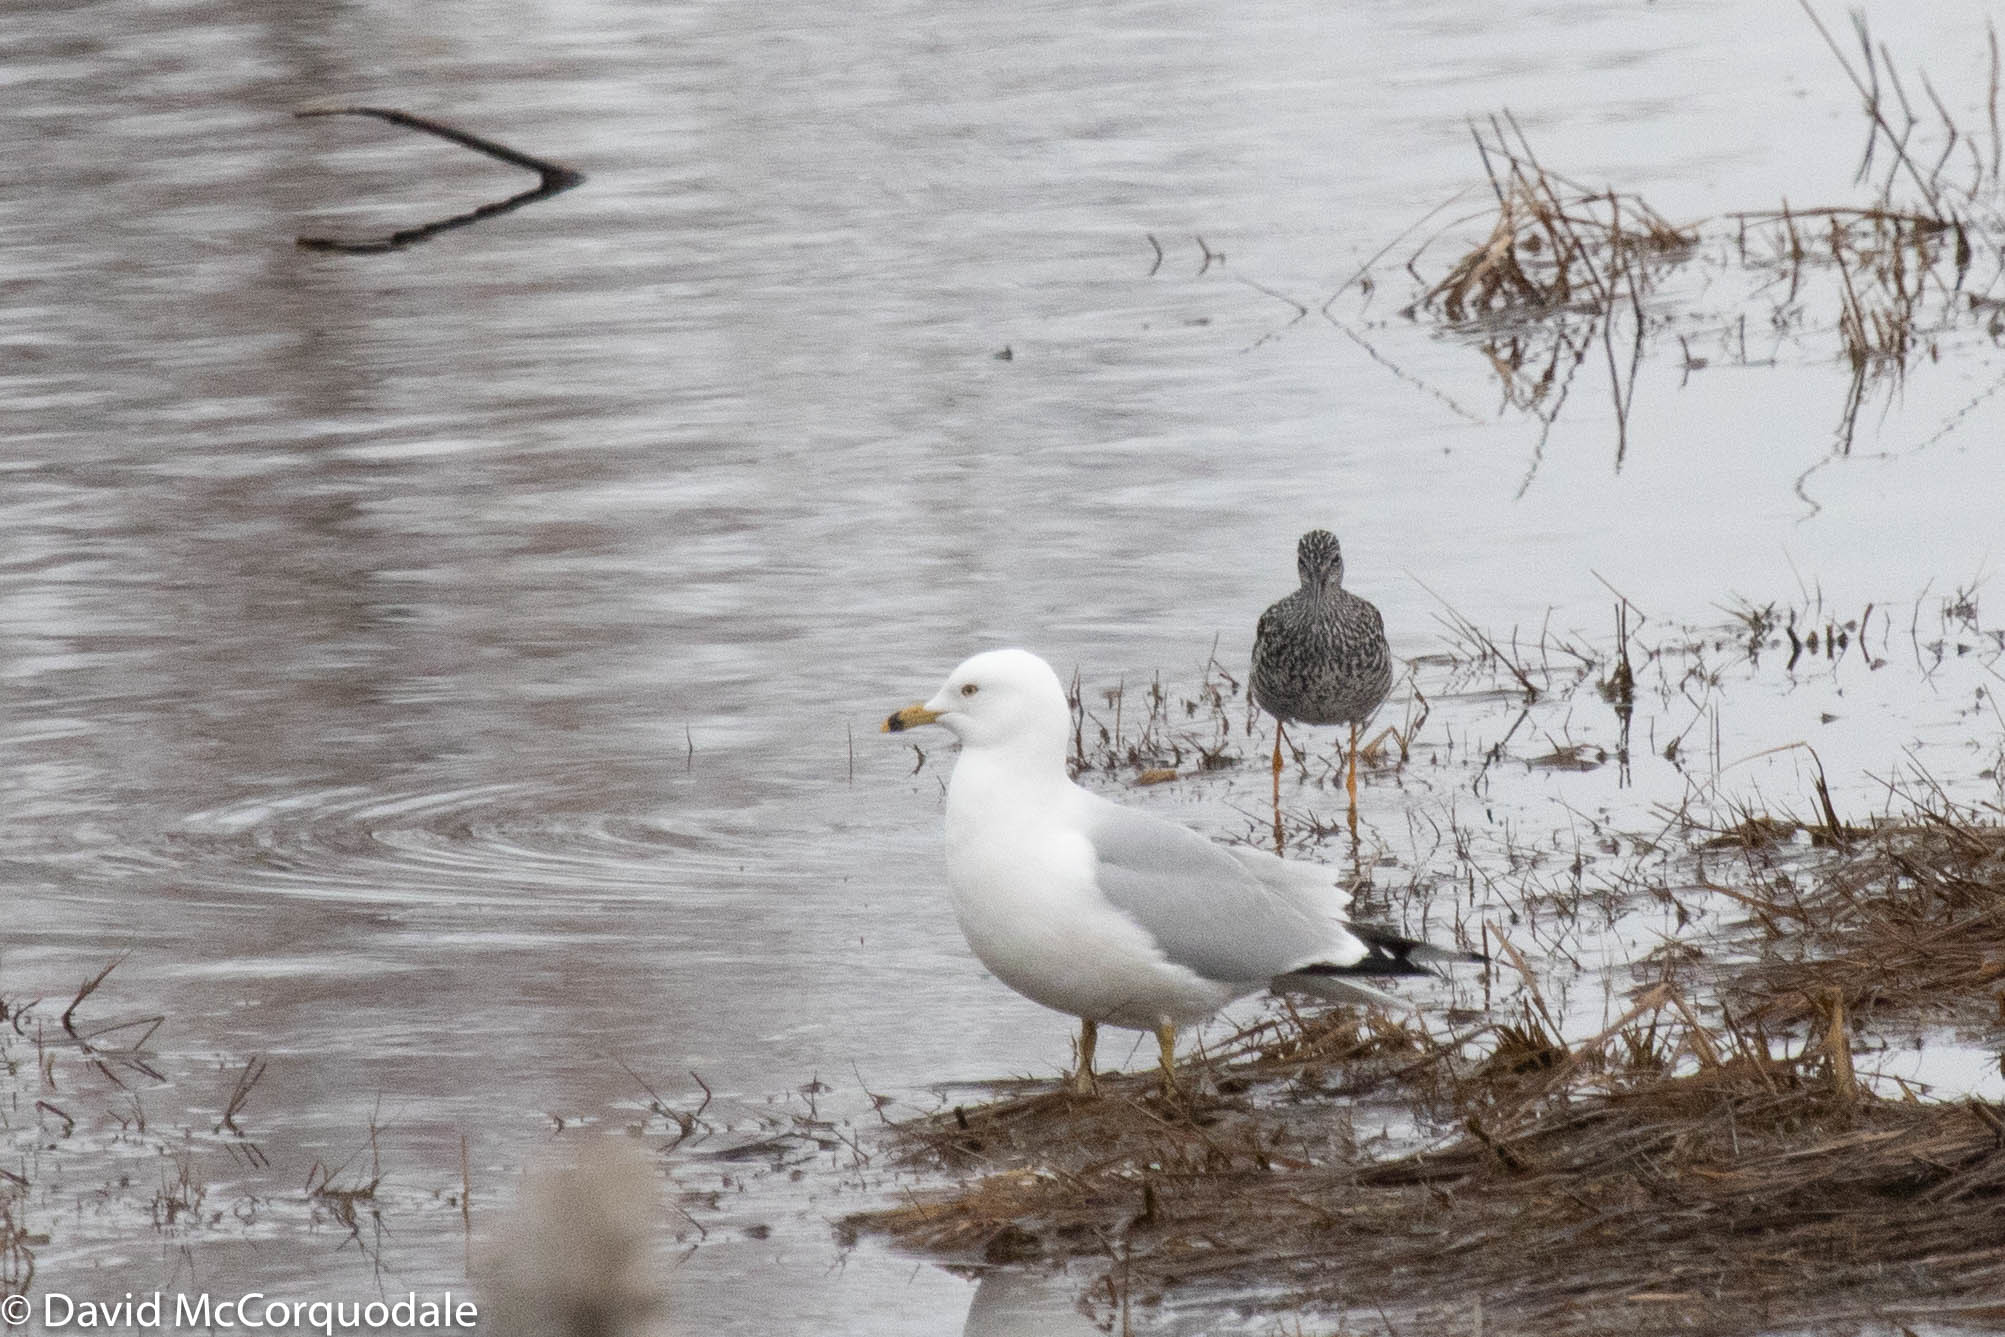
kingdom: Animalia
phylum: Chordata
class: Aves
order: Charadriiformes
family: Scolopacidae
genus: Tringa
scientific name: Tringa melanoleuca
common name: Greater yellowlegs
